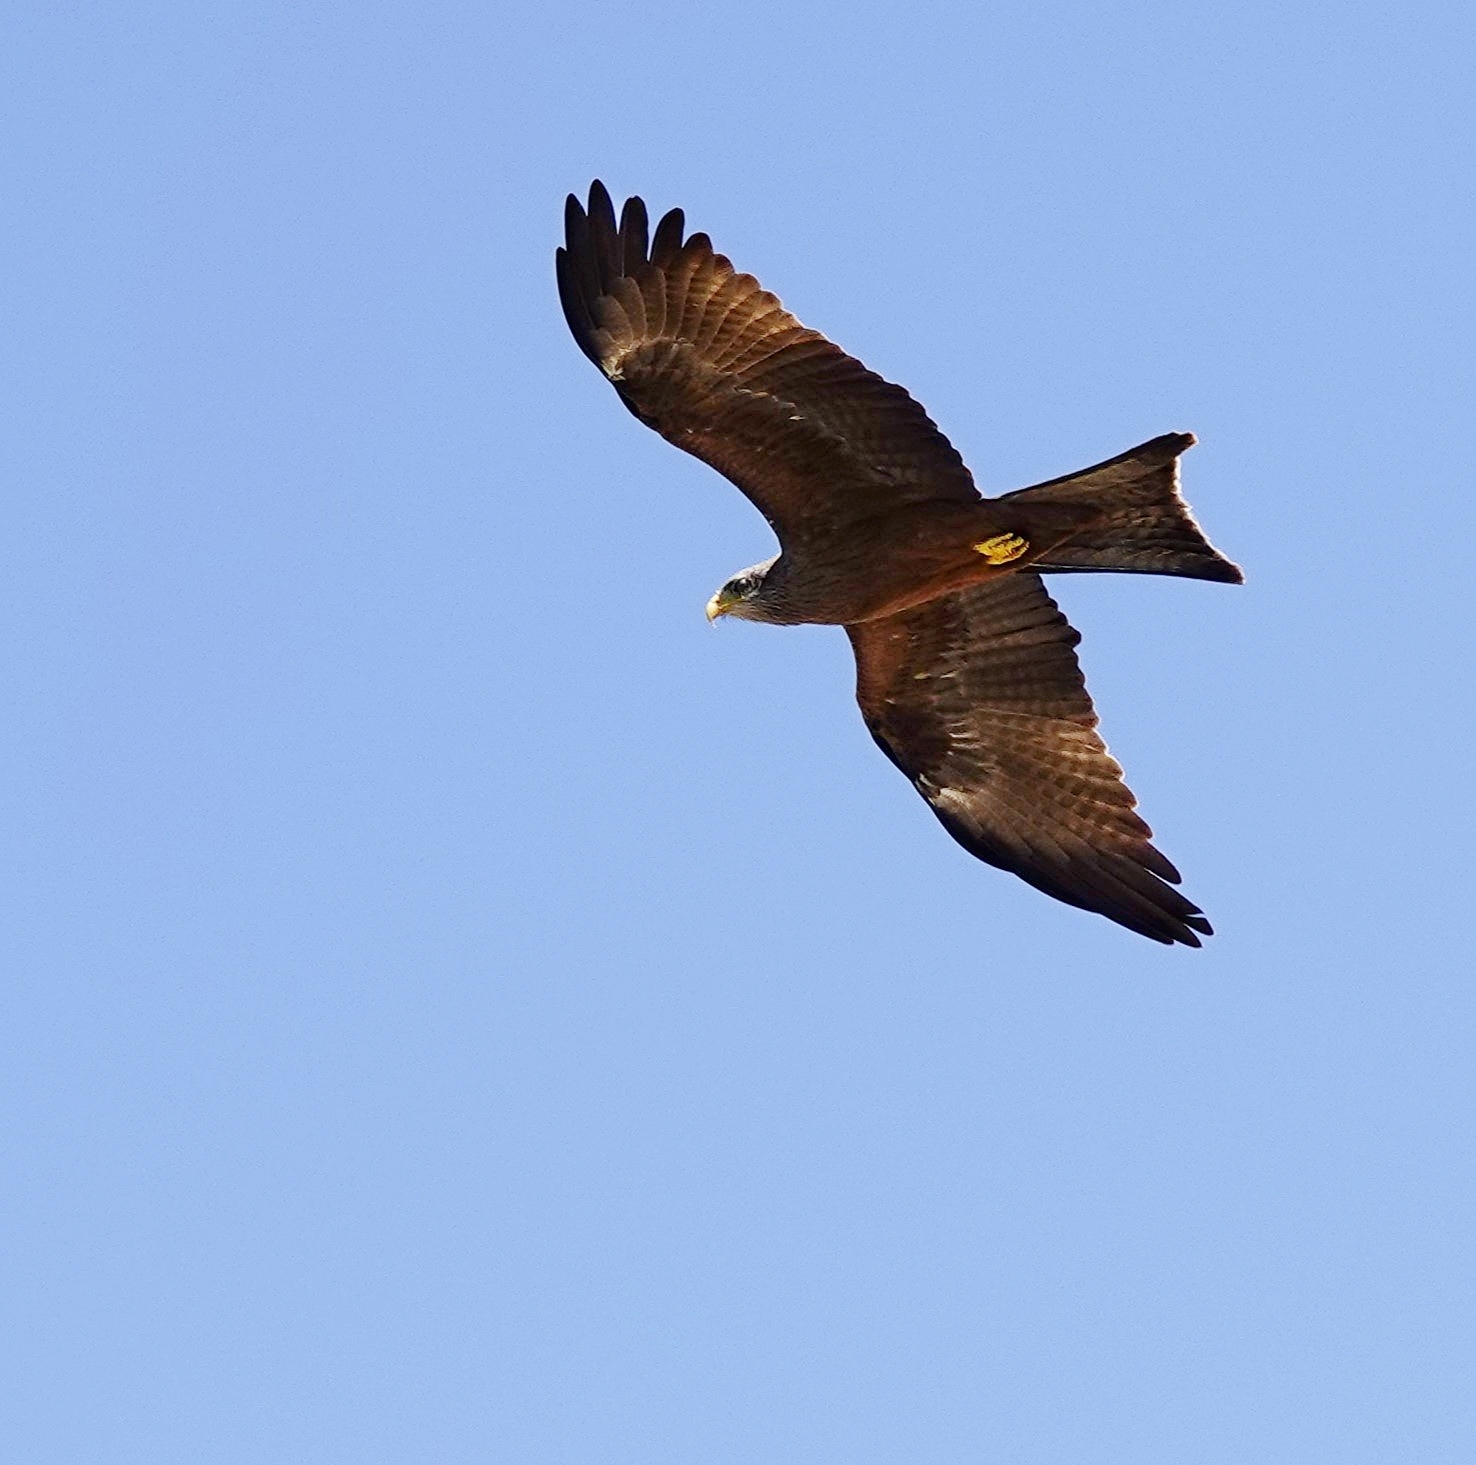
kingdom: Animalia
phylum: Chordata
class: Aves
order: Accipitriformes
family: Accipitridae
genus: Milvus
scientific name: Milvus migrans
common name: Black kite
